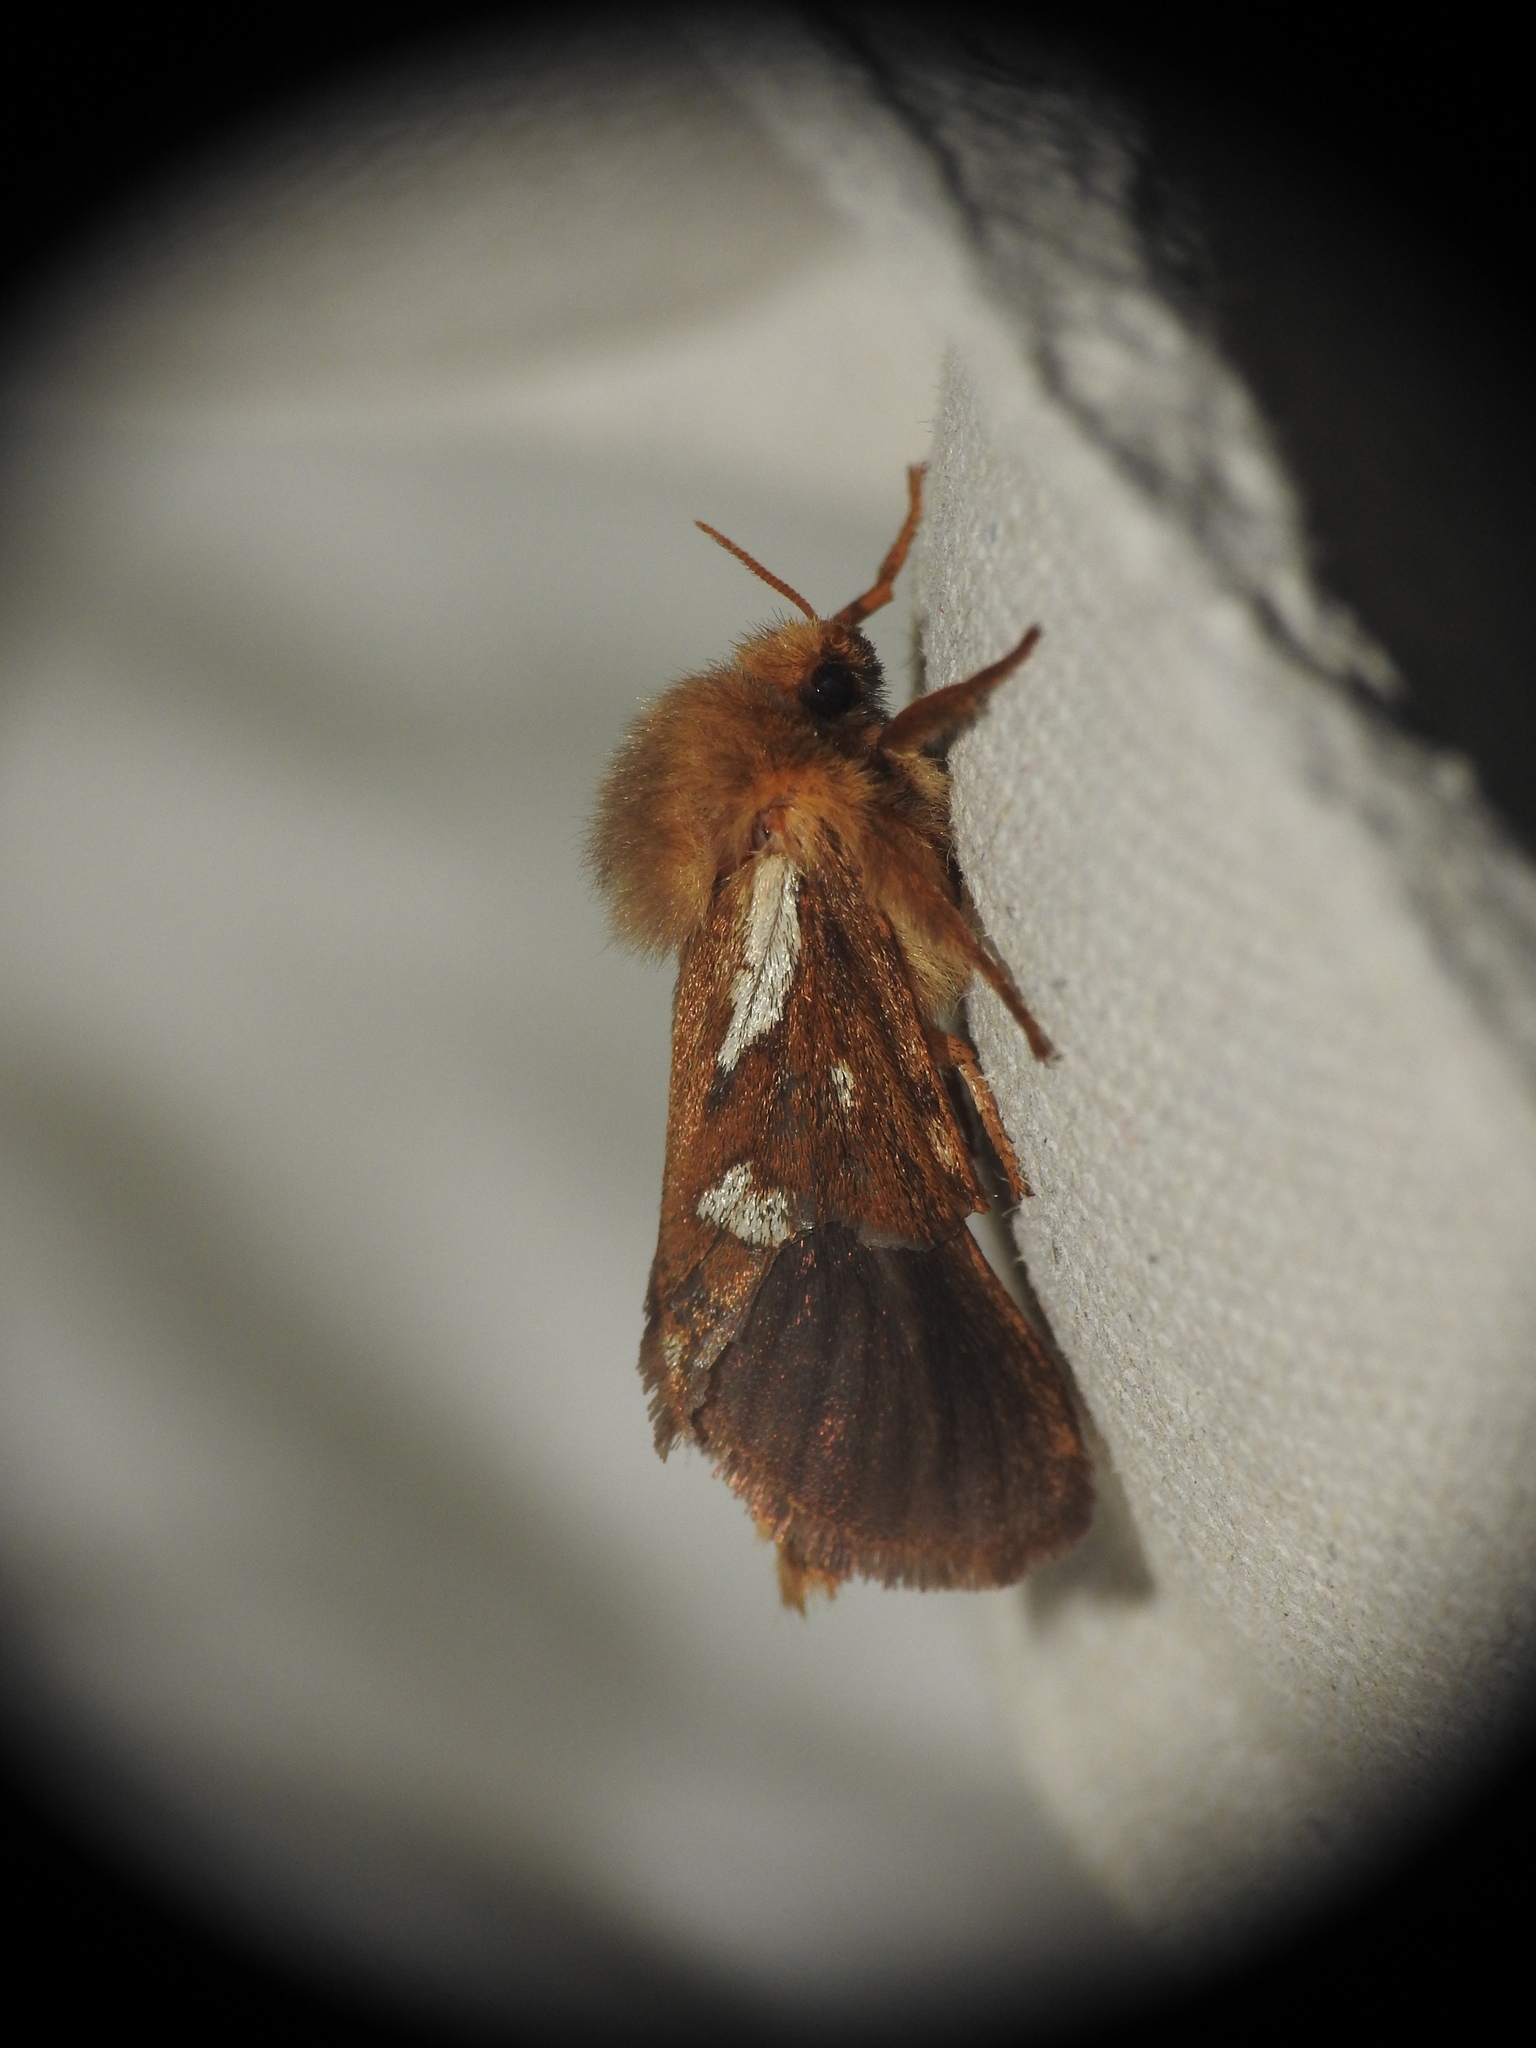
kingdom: Animalia
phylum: Arthropoda
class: Insecta
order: Lepidoptera
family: Hepialidae
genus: Korscheltellus
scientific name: Korscheltellus lupulina
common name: Common swift
